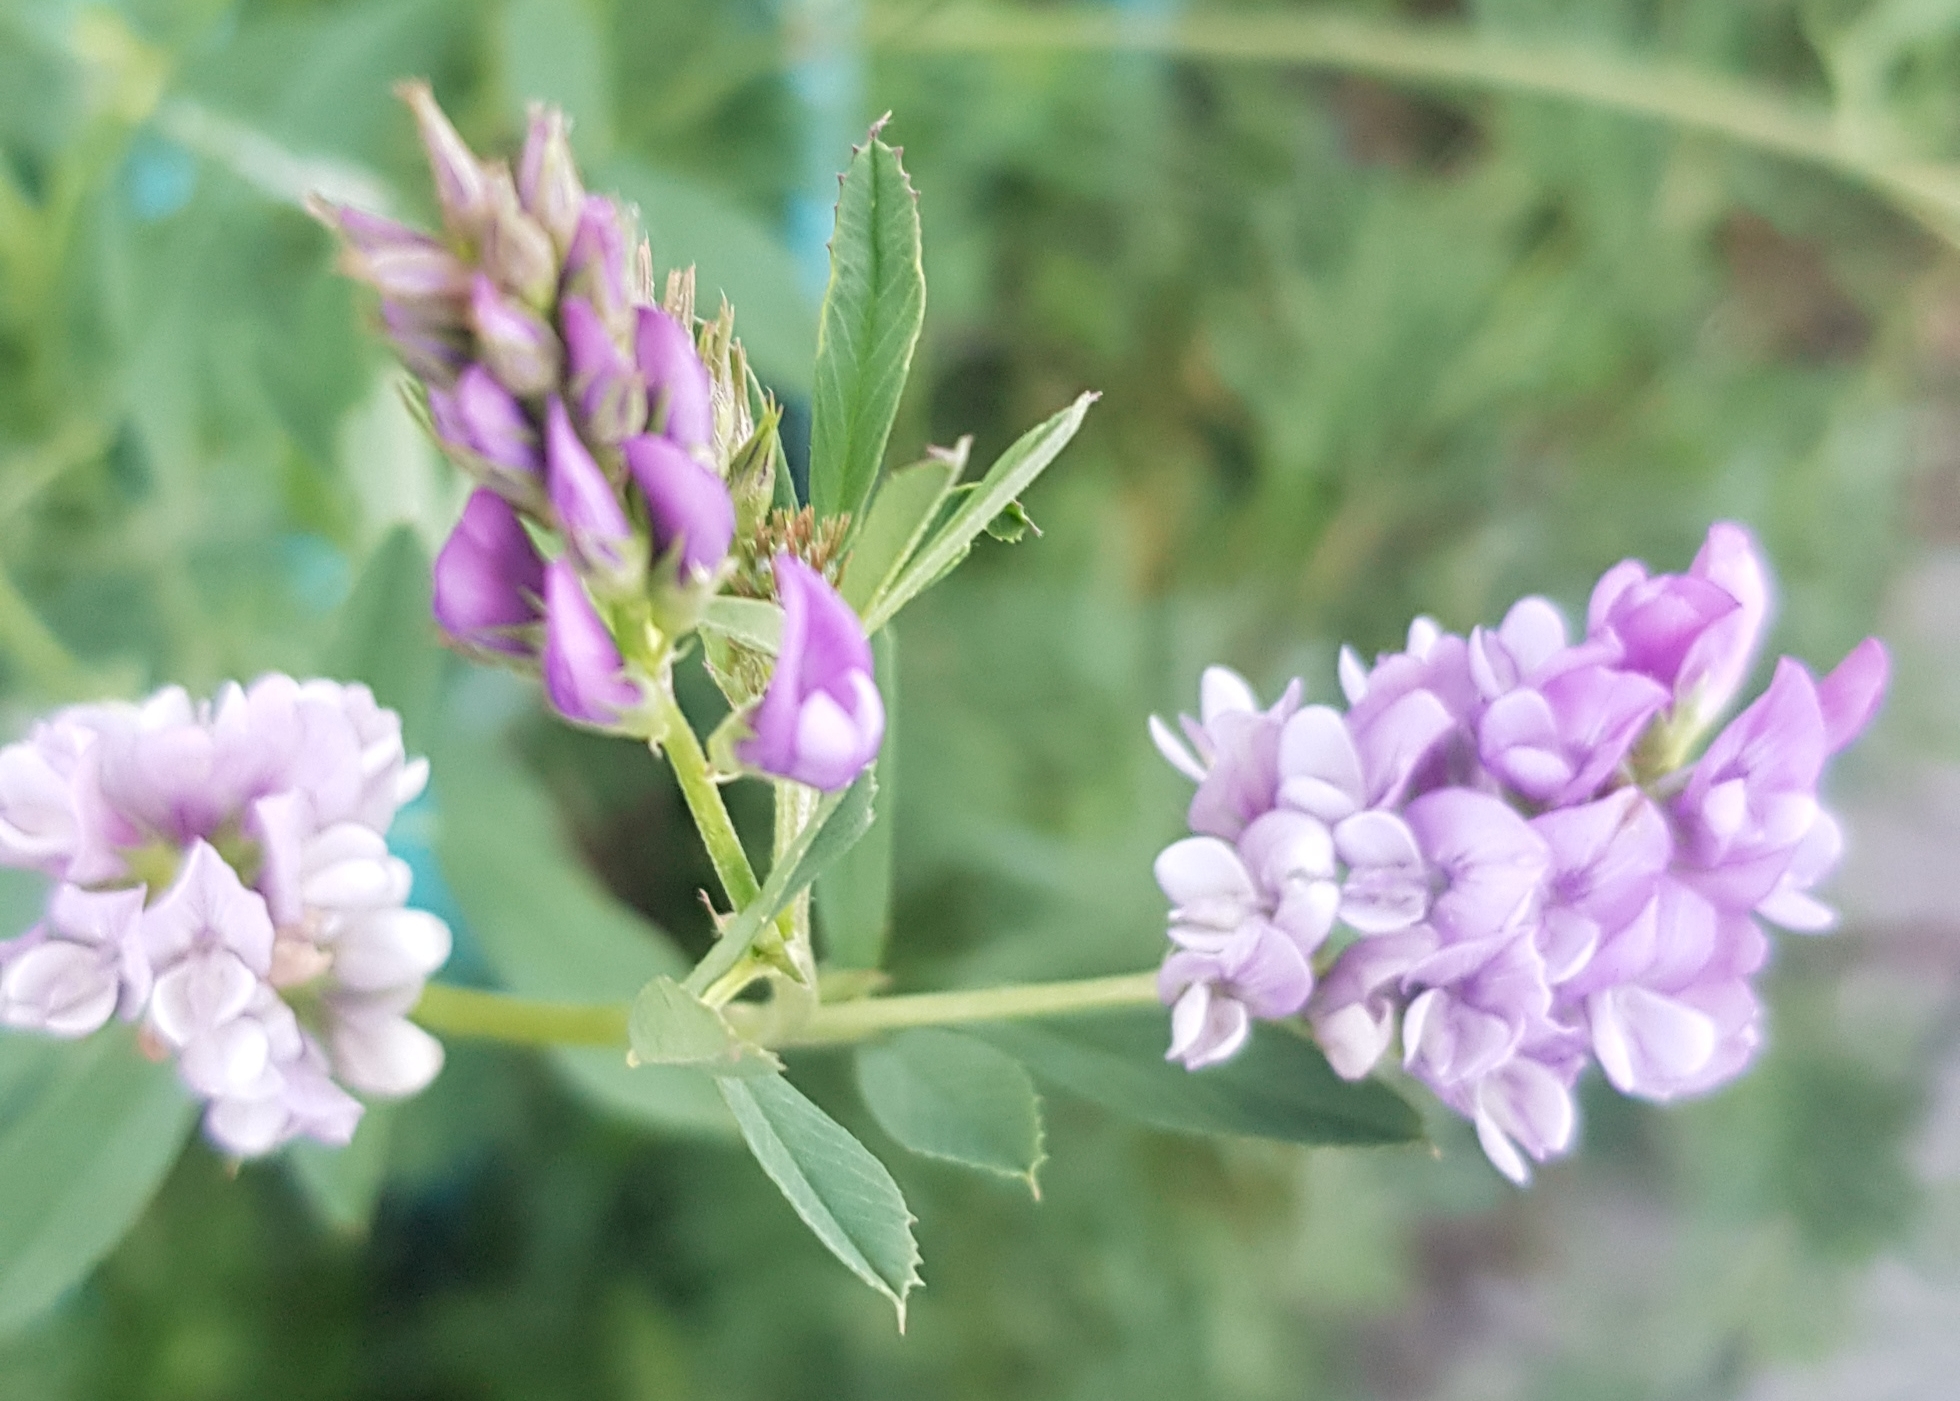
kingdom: Plantae
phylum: Tracheophyta
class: Magnoliopsida
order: Fabales
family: Fabaceae
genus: Medicago
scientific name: Medicago sativa
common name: Alfalfa
